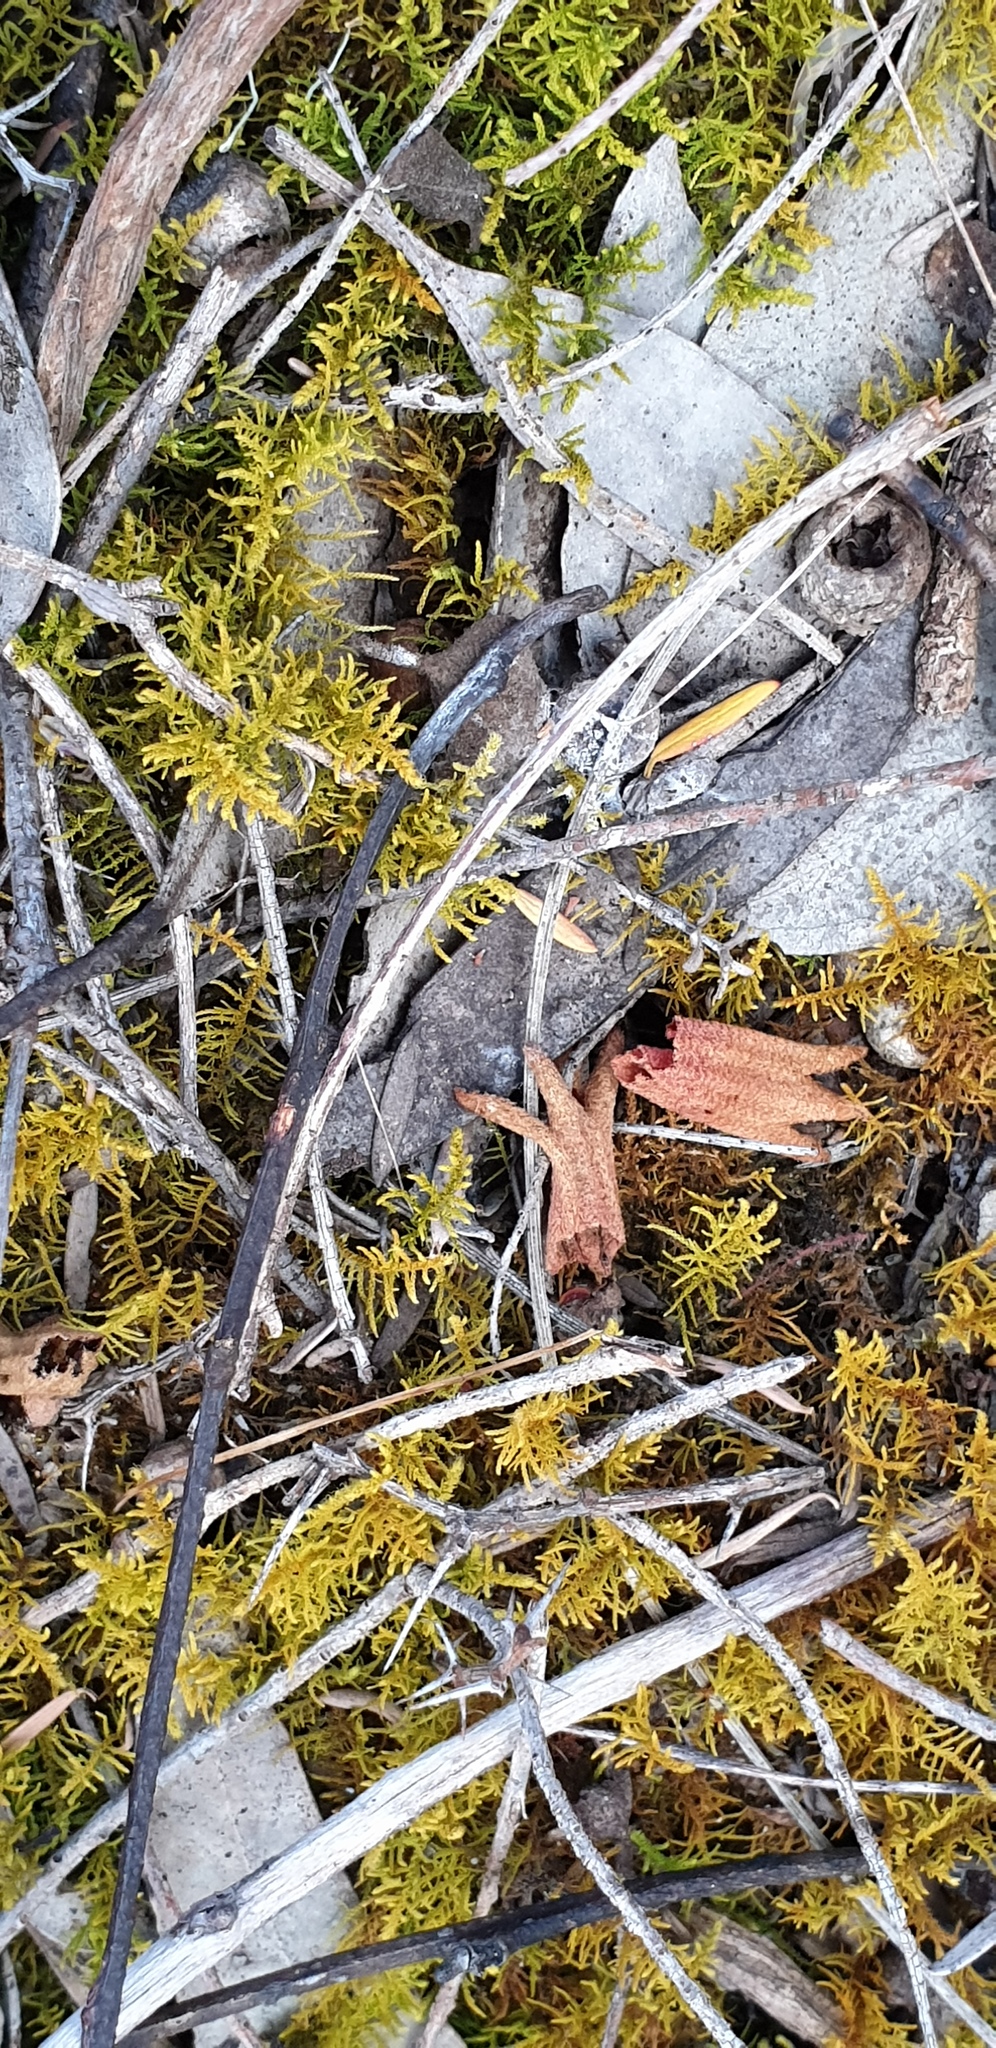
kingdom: Plantae
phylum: Bryophyta
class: Bryopsida
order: Hypnales
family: Thuidiaceae
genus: Thuidiopsis
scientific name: Thuidiopsis sparsa
